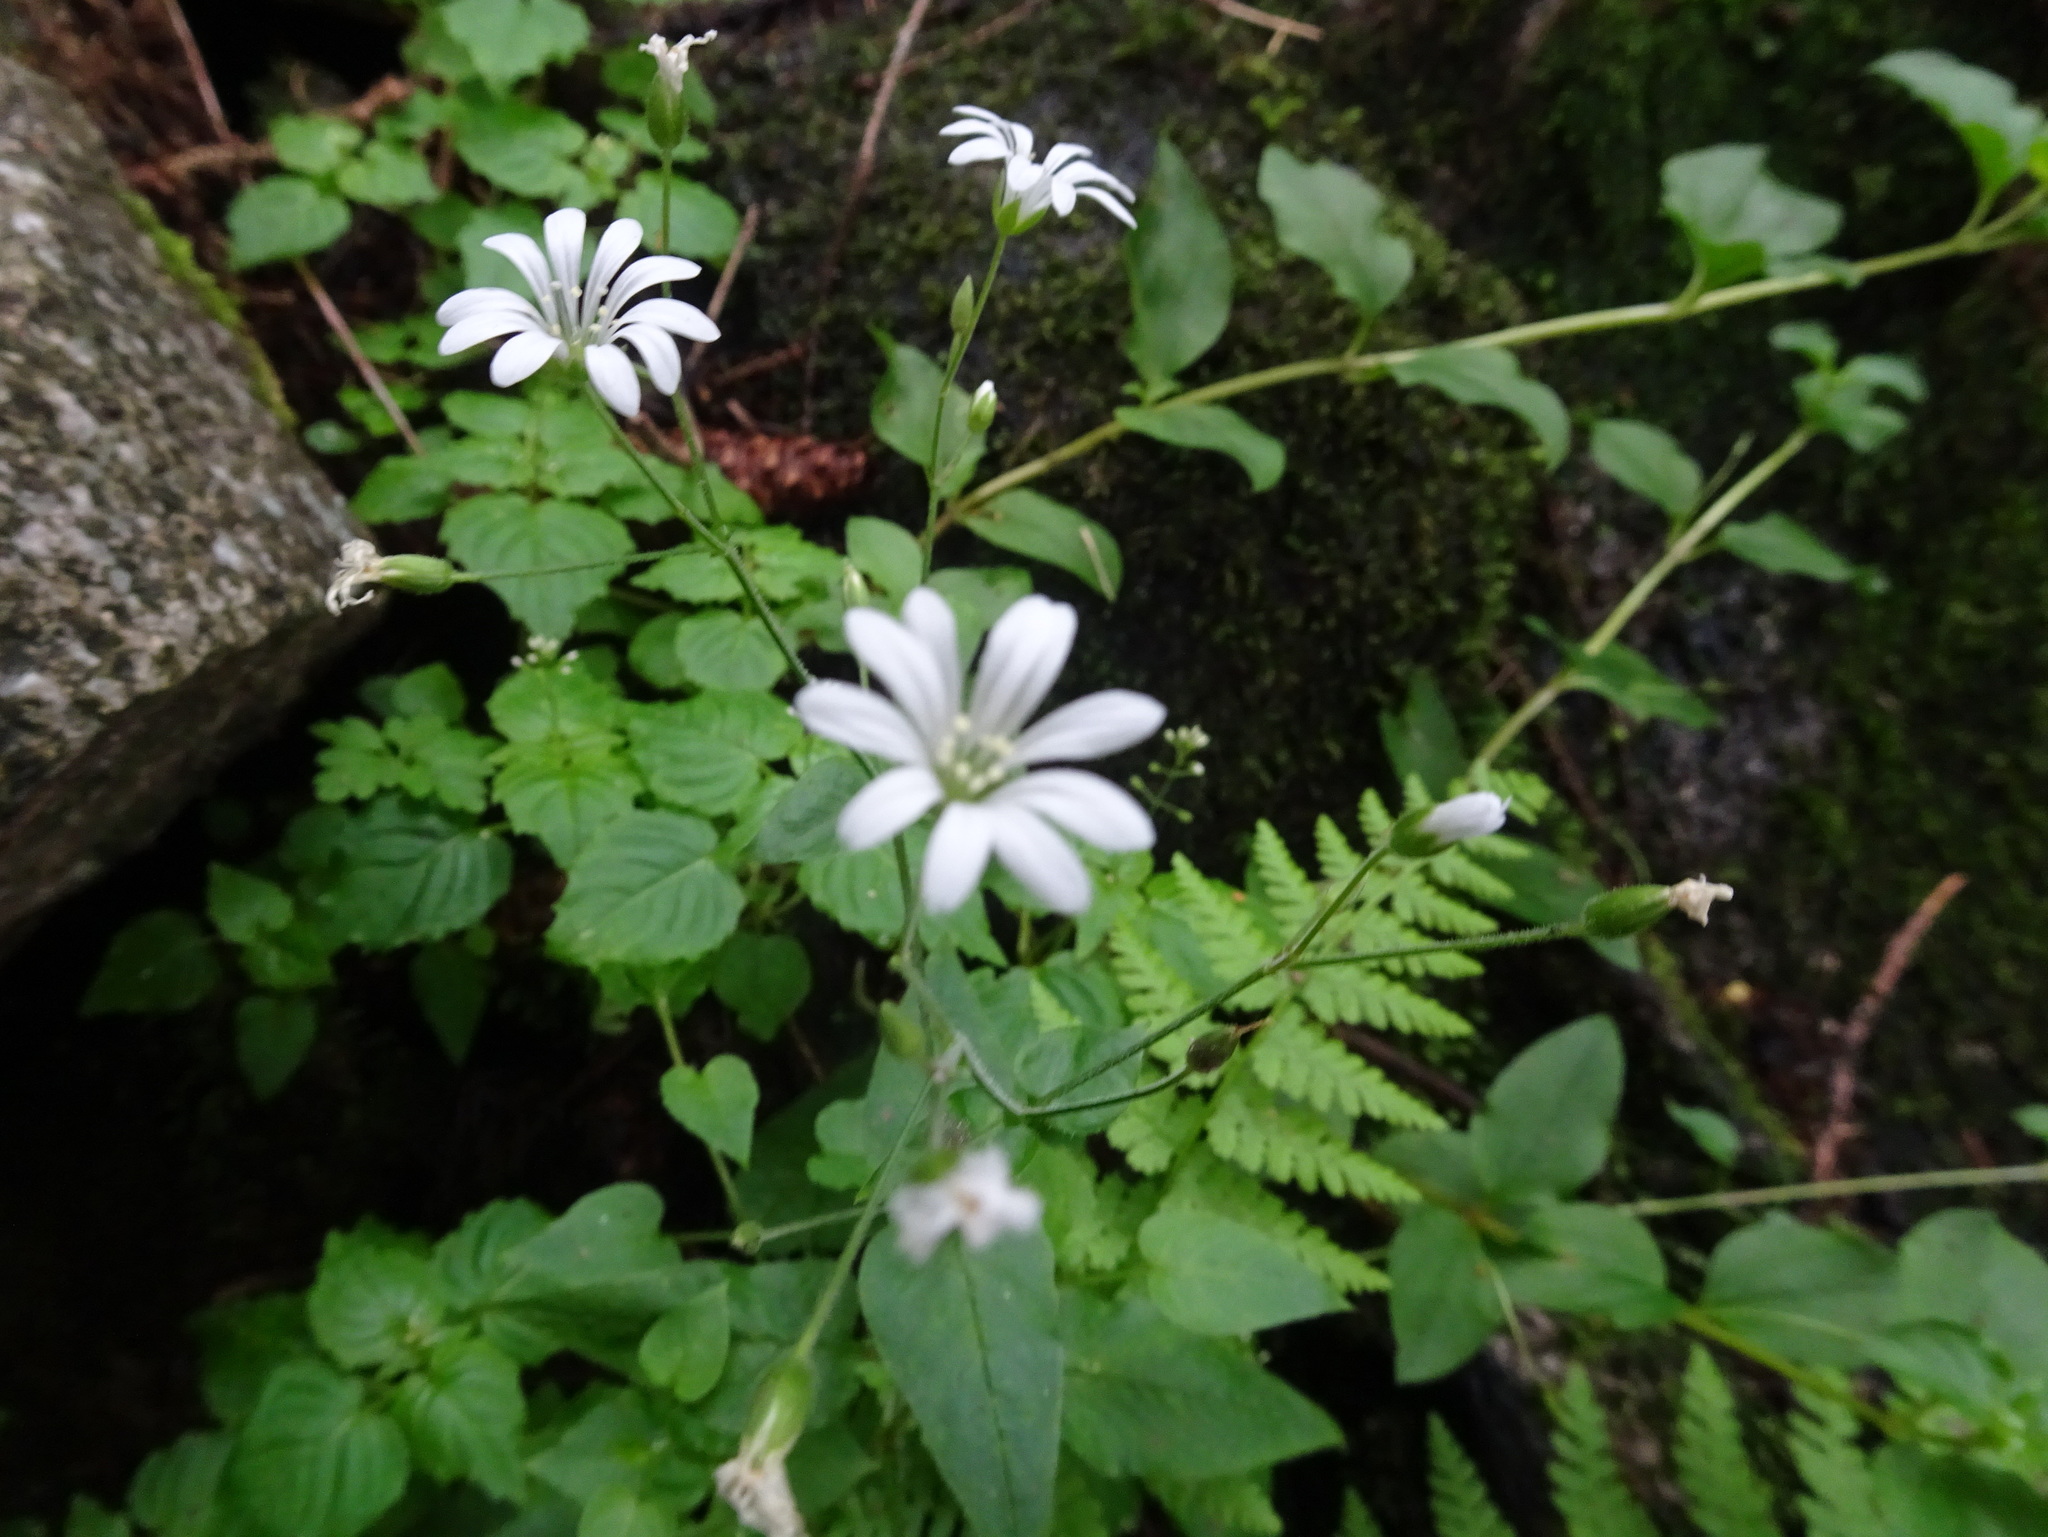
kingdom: Plantae
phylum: Tracheophyta
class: Magnoliopsida
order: Caryophyllales
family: Caryophyllaceae
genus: Stellaria
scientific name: Stellaria nemorum
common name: Wood stitchwort
